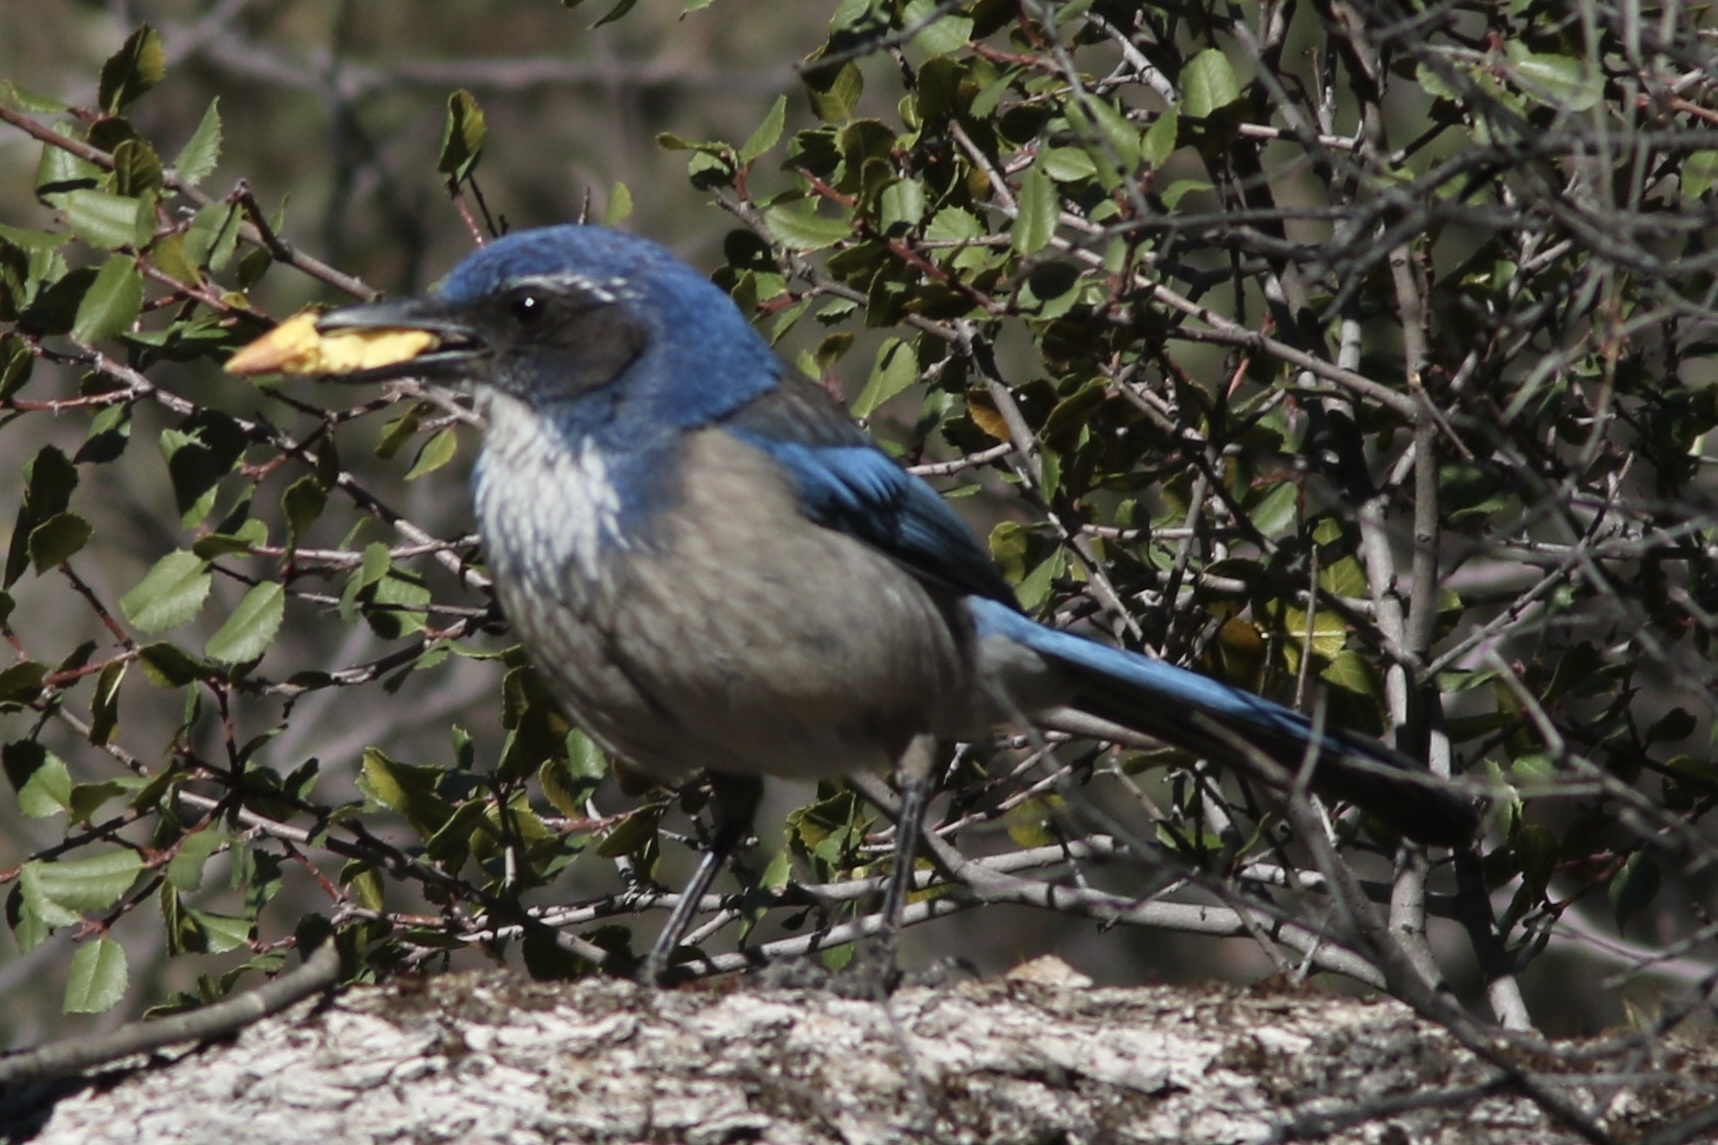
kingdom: Animalia
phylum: Chordata
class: Aves
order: Passeriformes
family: Corvidae
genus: Aphelocoma
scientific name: Aphelocoma californica
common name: California scrub-jay
